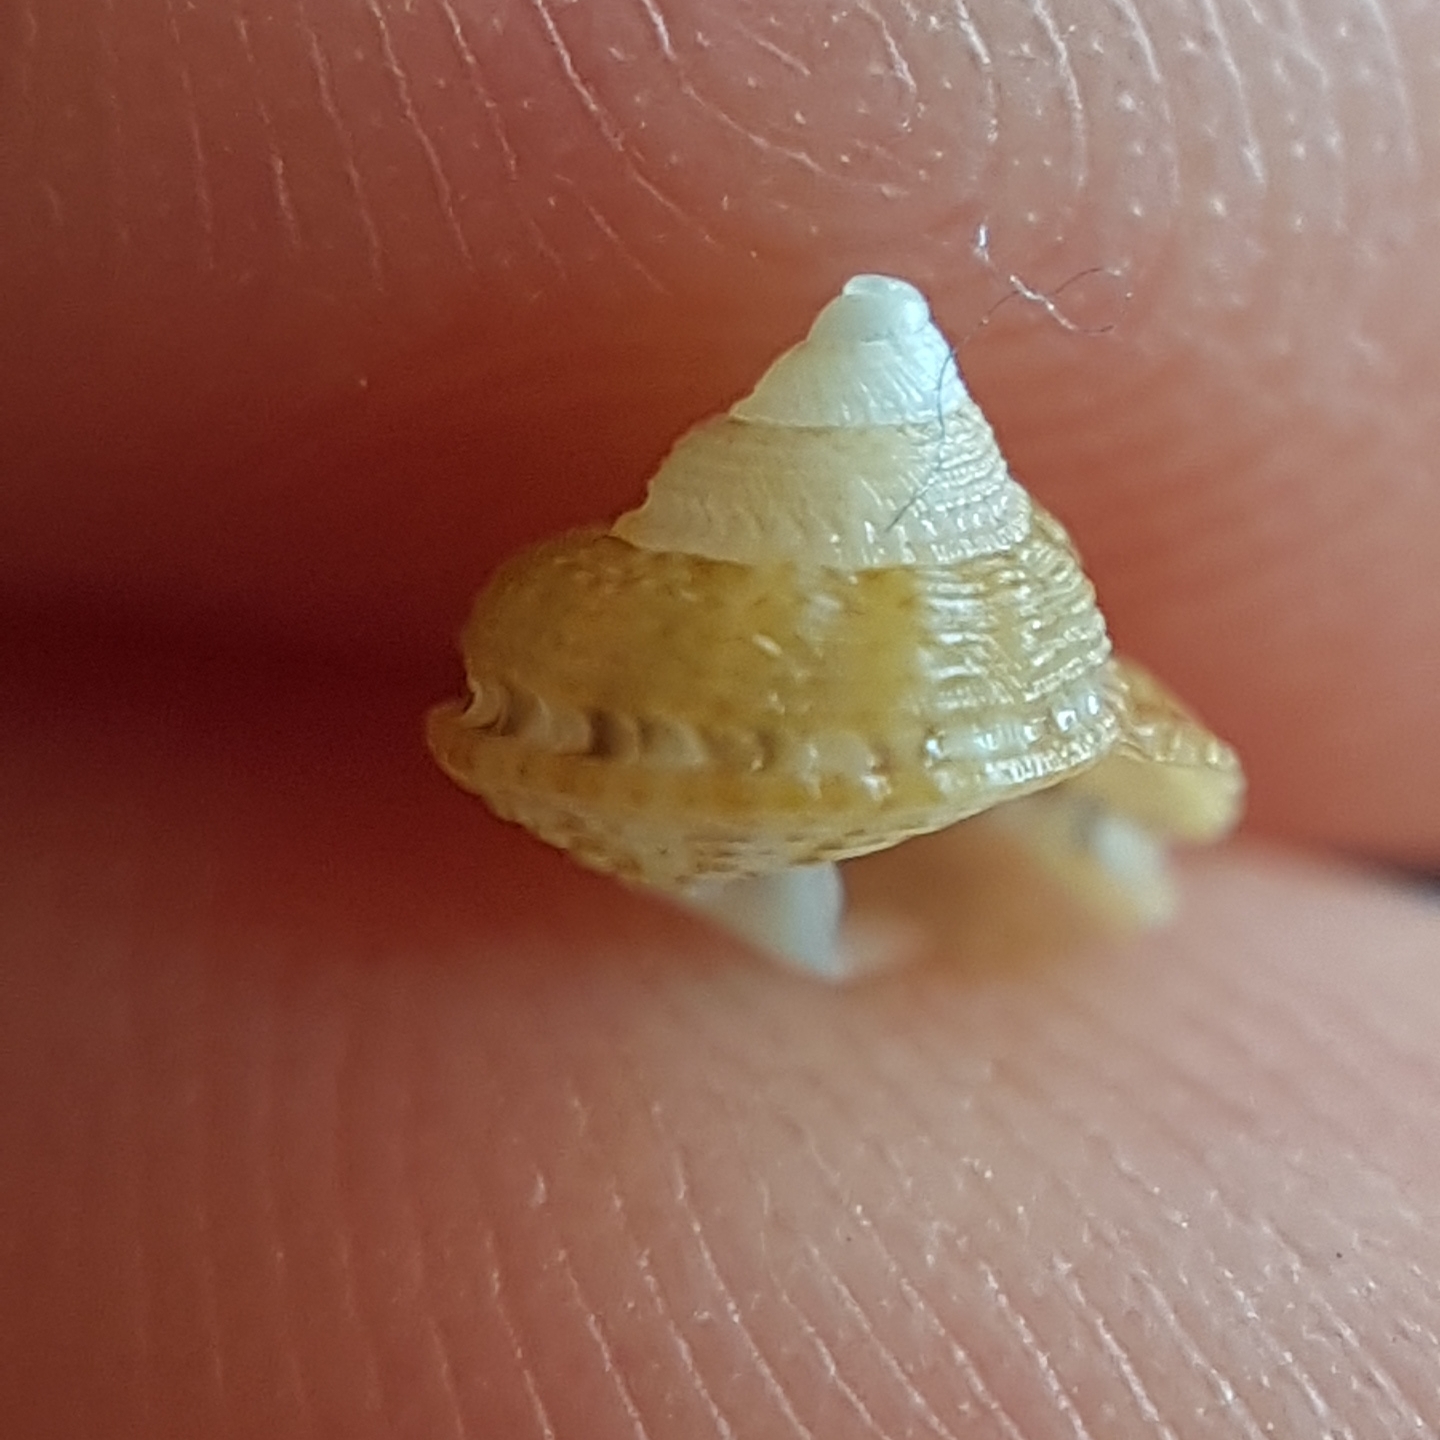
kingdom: Animalia
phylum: Mollusca
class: Gastropoda
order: Trochida
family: Trochidae
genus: Gibbula
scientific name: Gibbula fanulum
